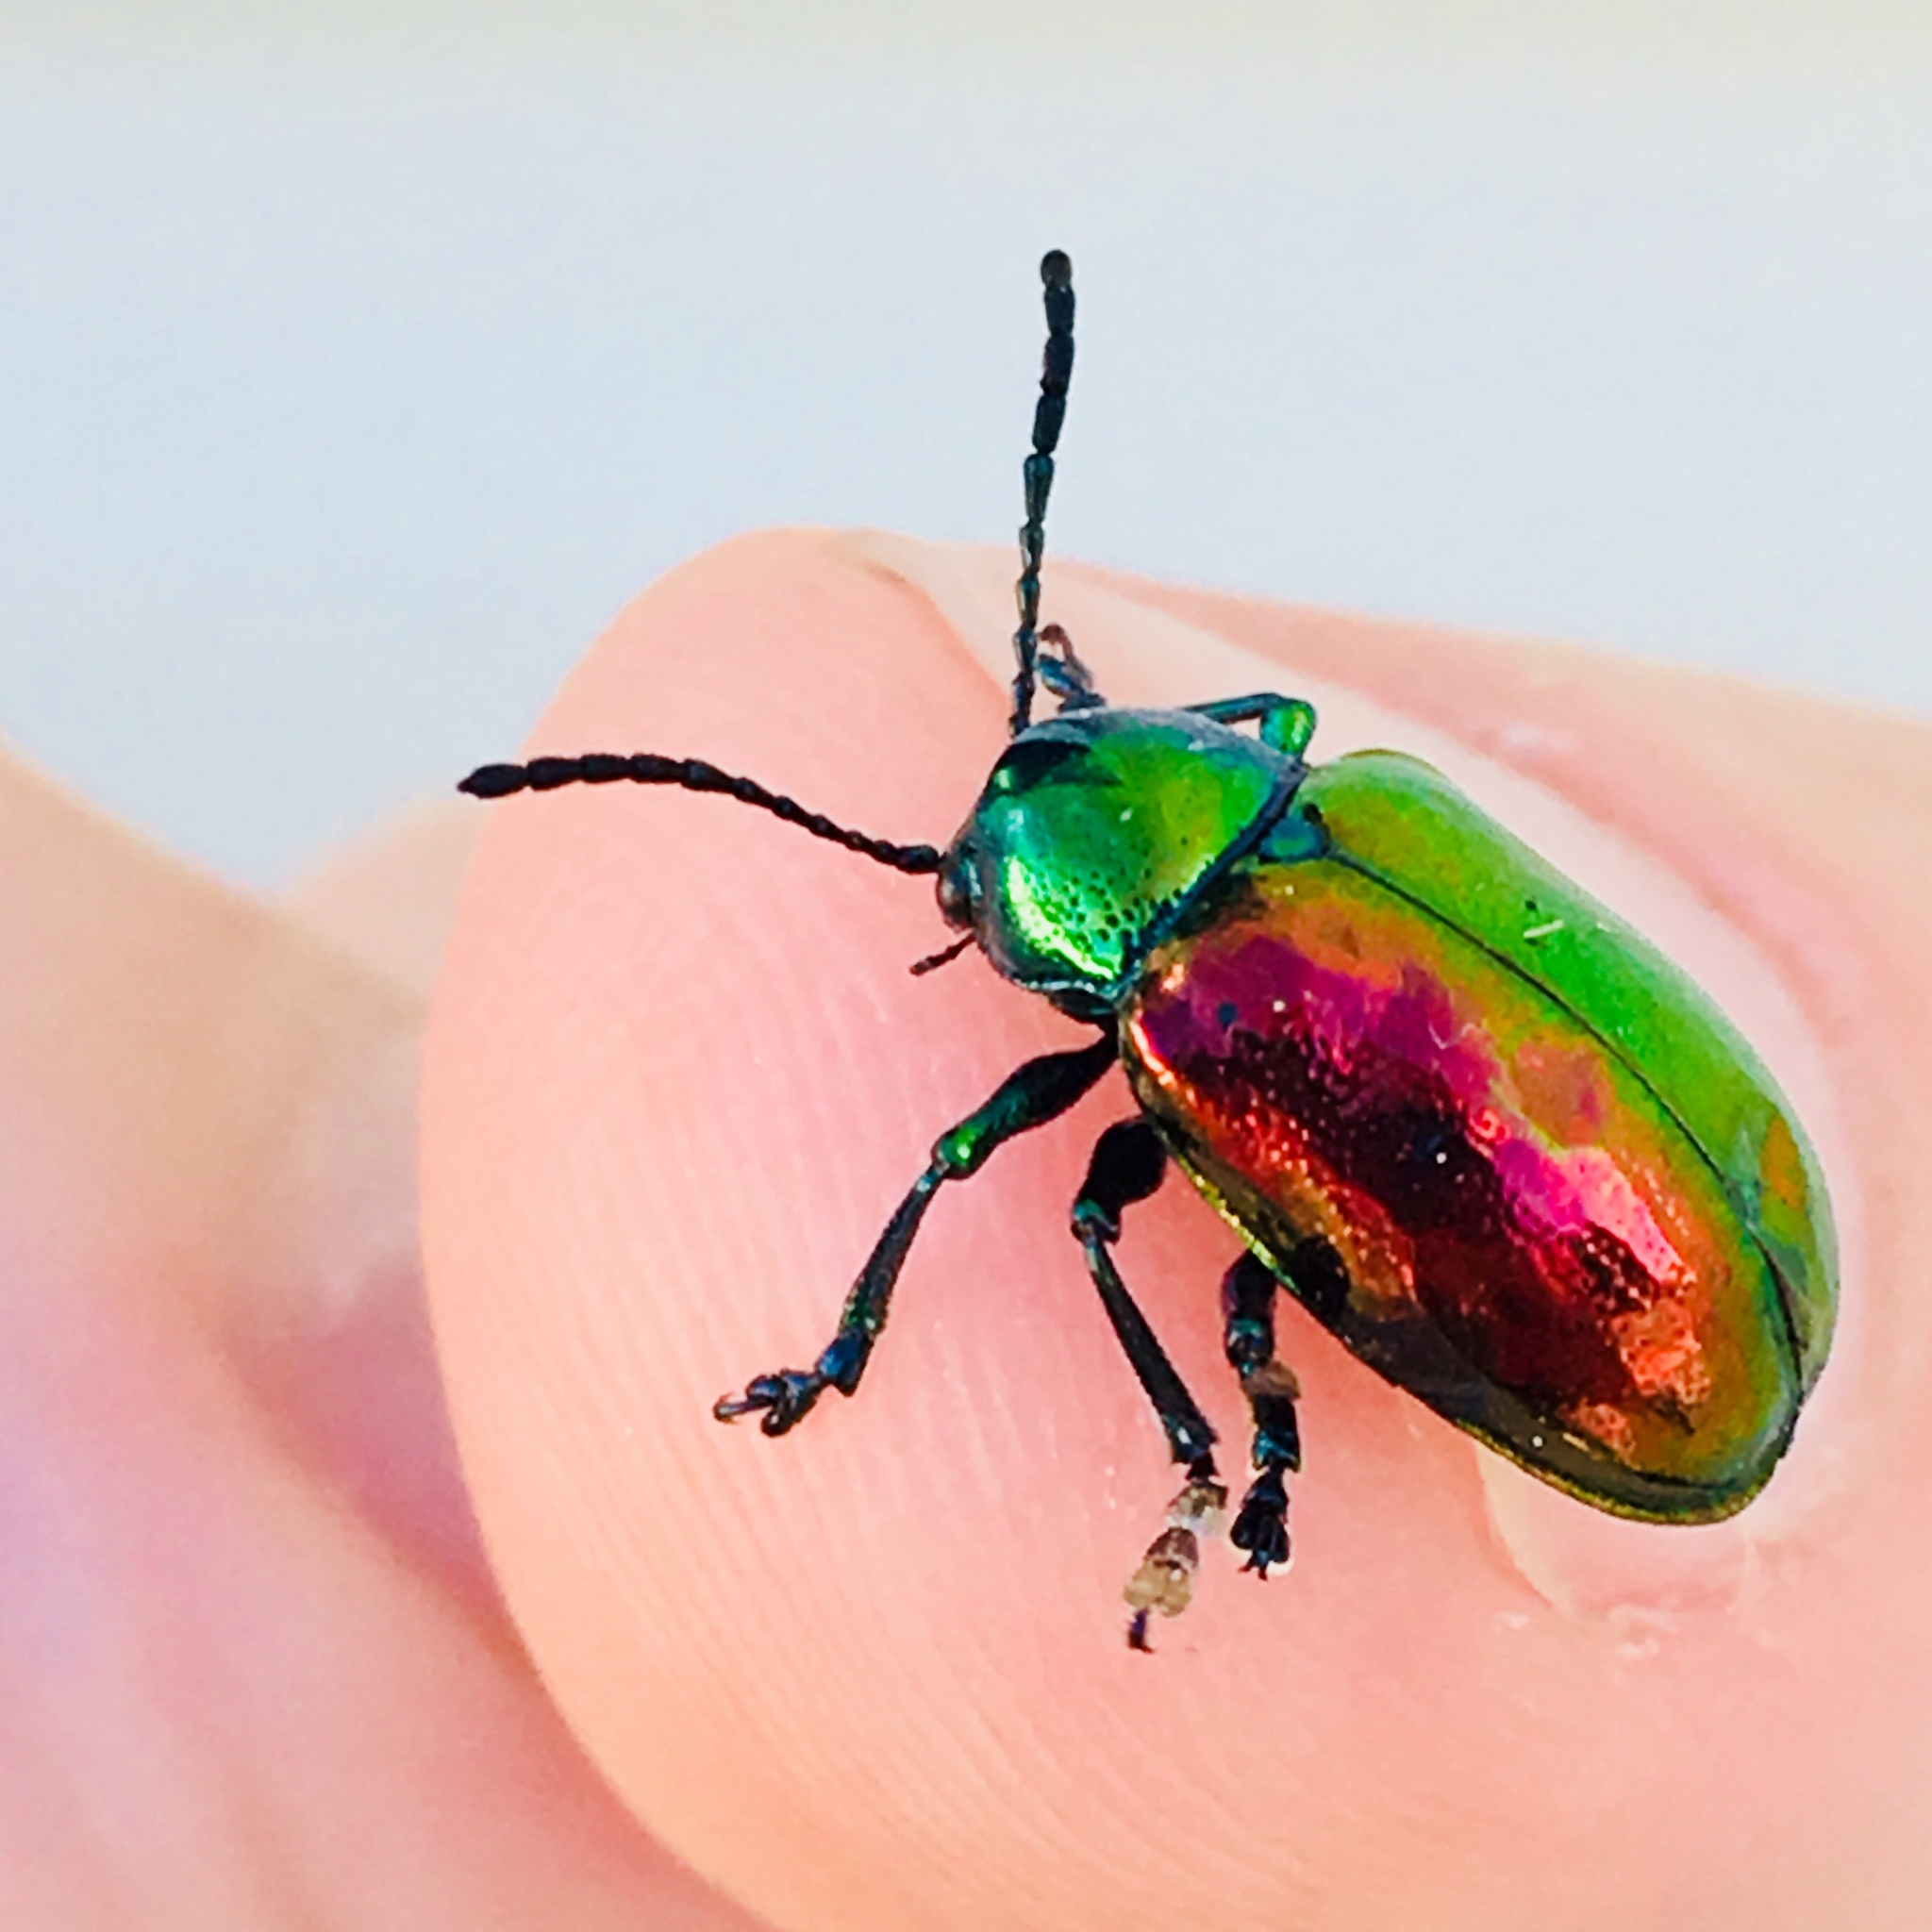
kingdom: Animalia
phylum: Arthropoda
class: Insecta
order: Coleoptera
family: Chrysomelidae
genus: Chrysochus
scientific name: Chrysochus auratus
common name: Dogbane leaf beetle
